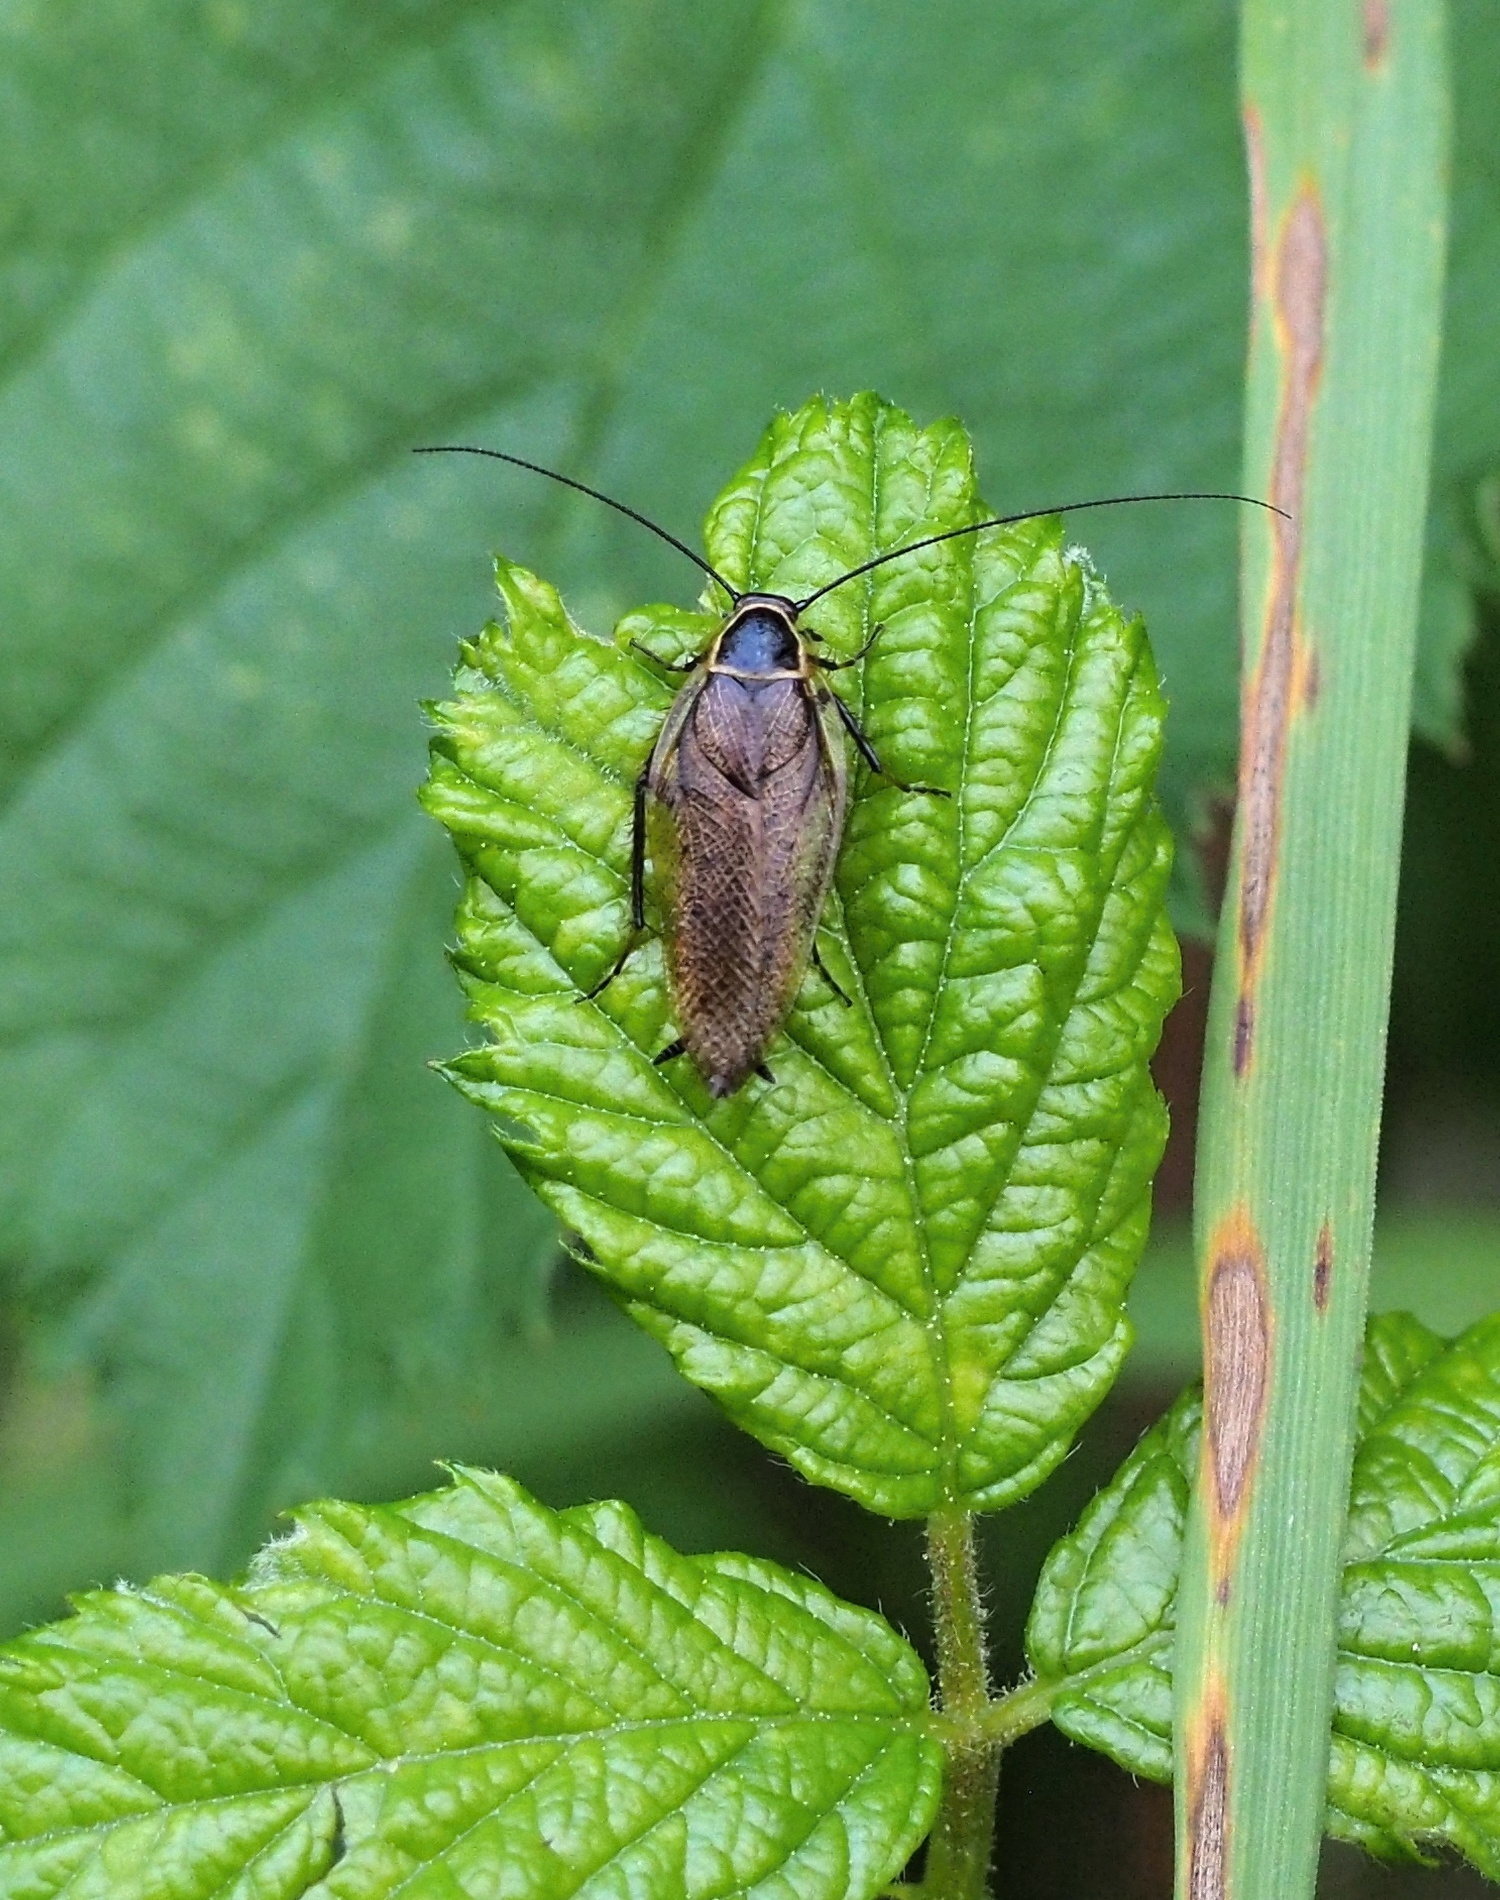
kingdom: Animalia
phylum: Arthropoda
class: Insecta
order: Blattodea
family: Ectobiidae
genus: Ectobius
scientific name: Ectobius sylvestris
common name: Forest cockroach
